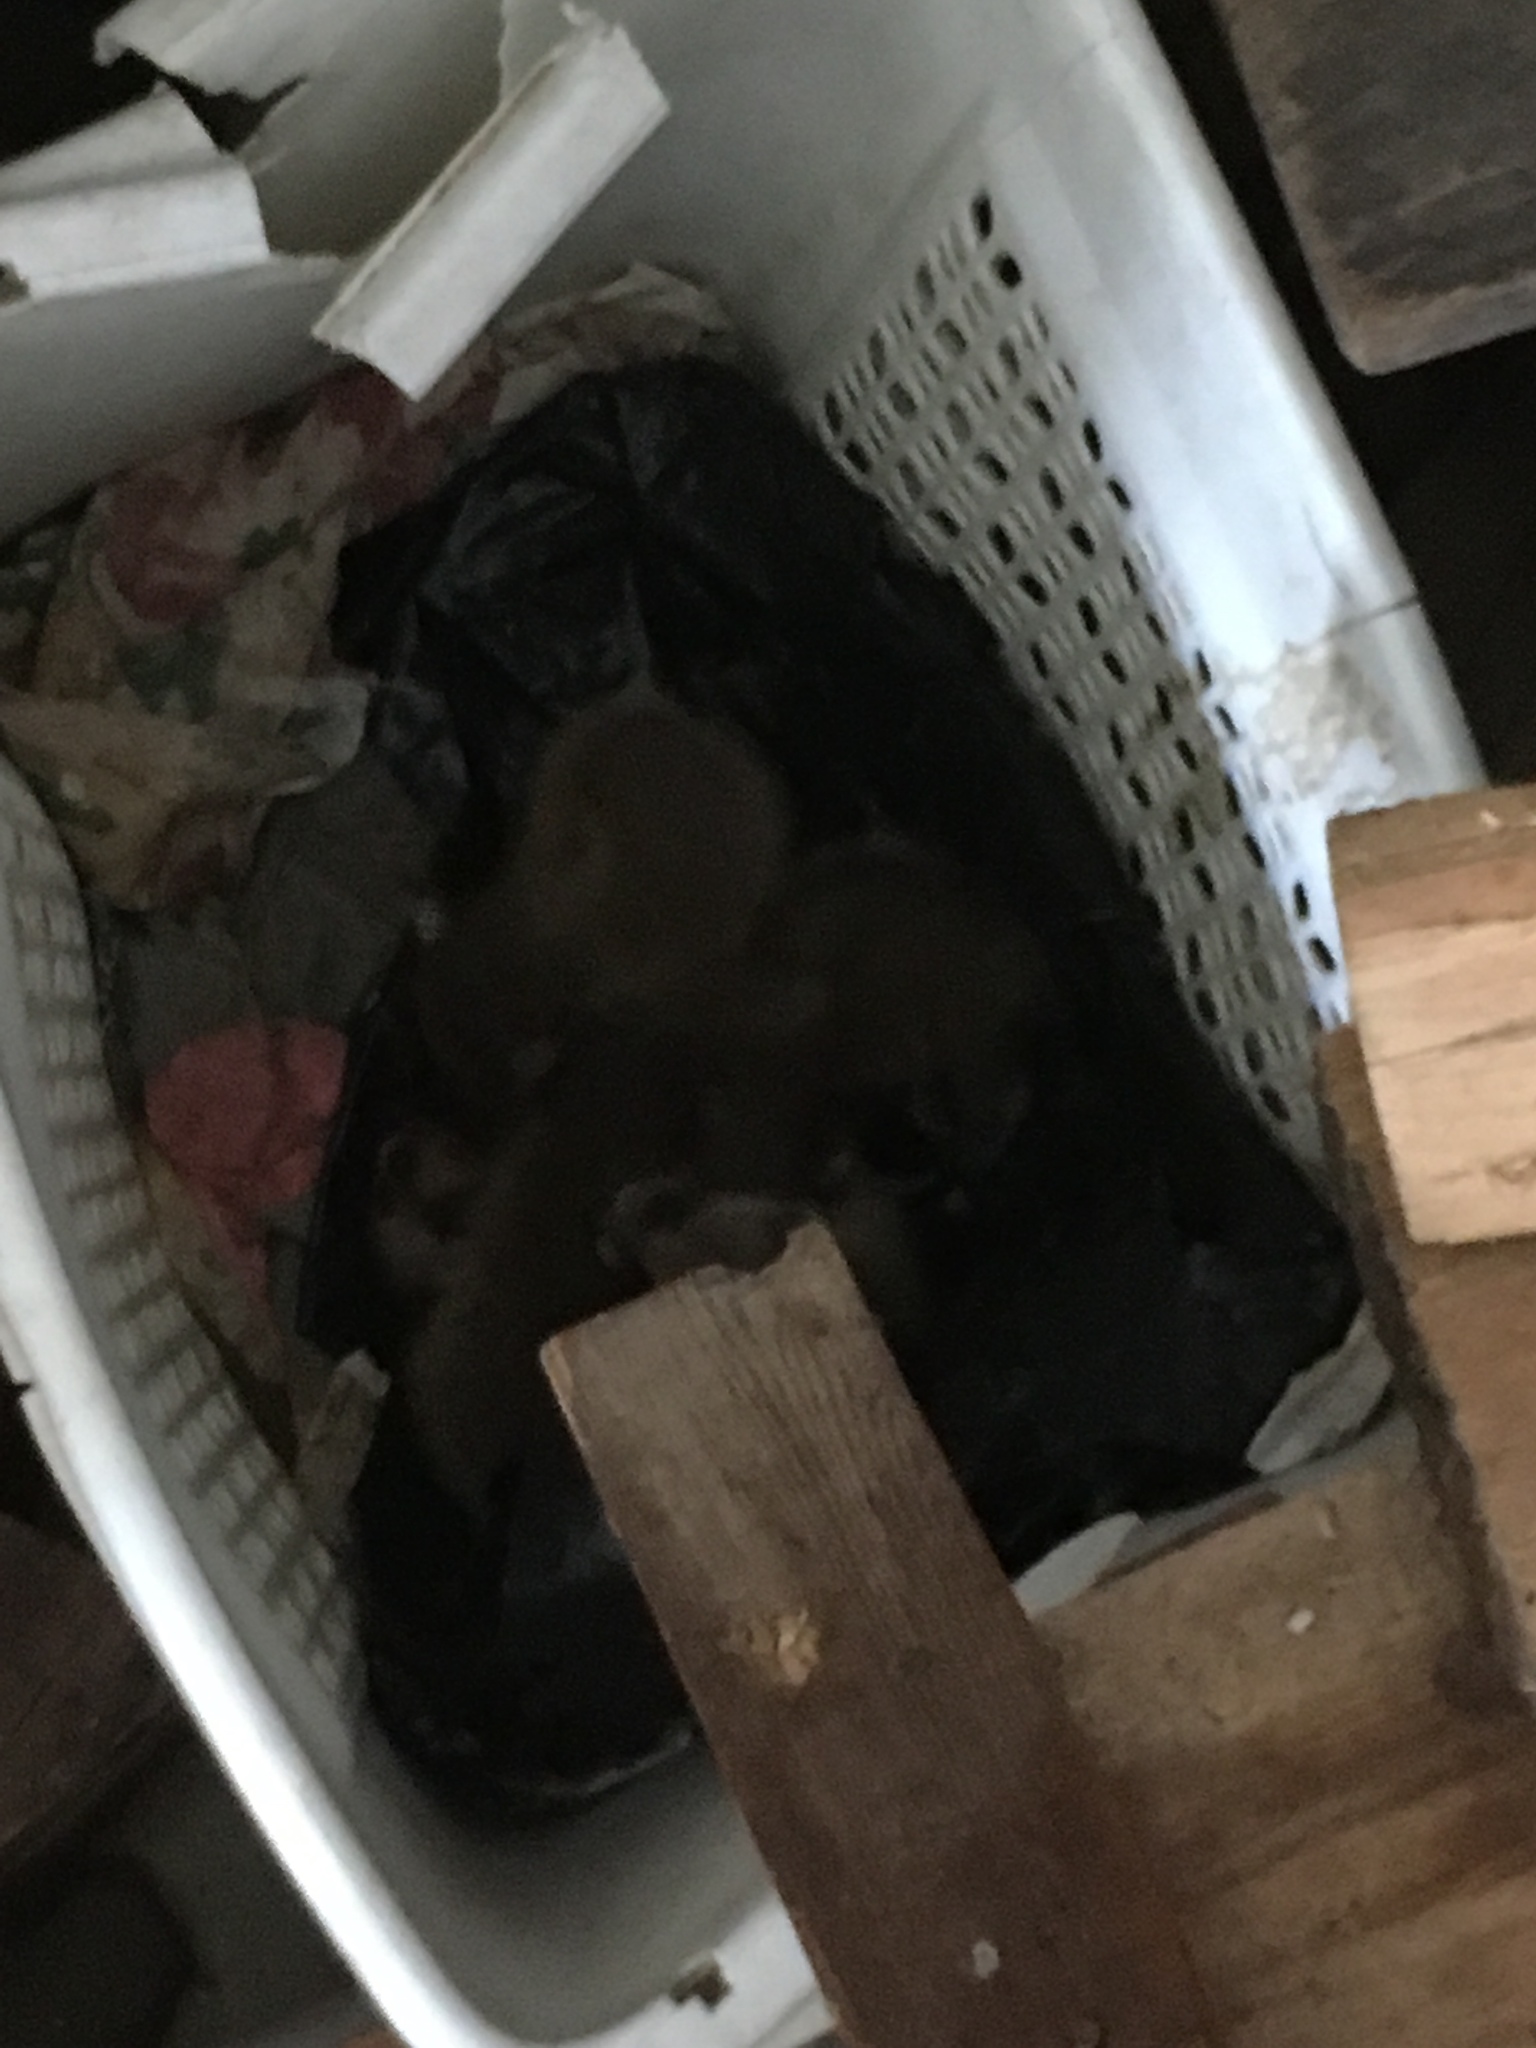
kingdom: Animalia
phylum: Chordata
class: Mammalia
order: Carnivora
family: Procyonidae
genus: Procyon
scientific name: Procyon lotor
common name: Raccoon
